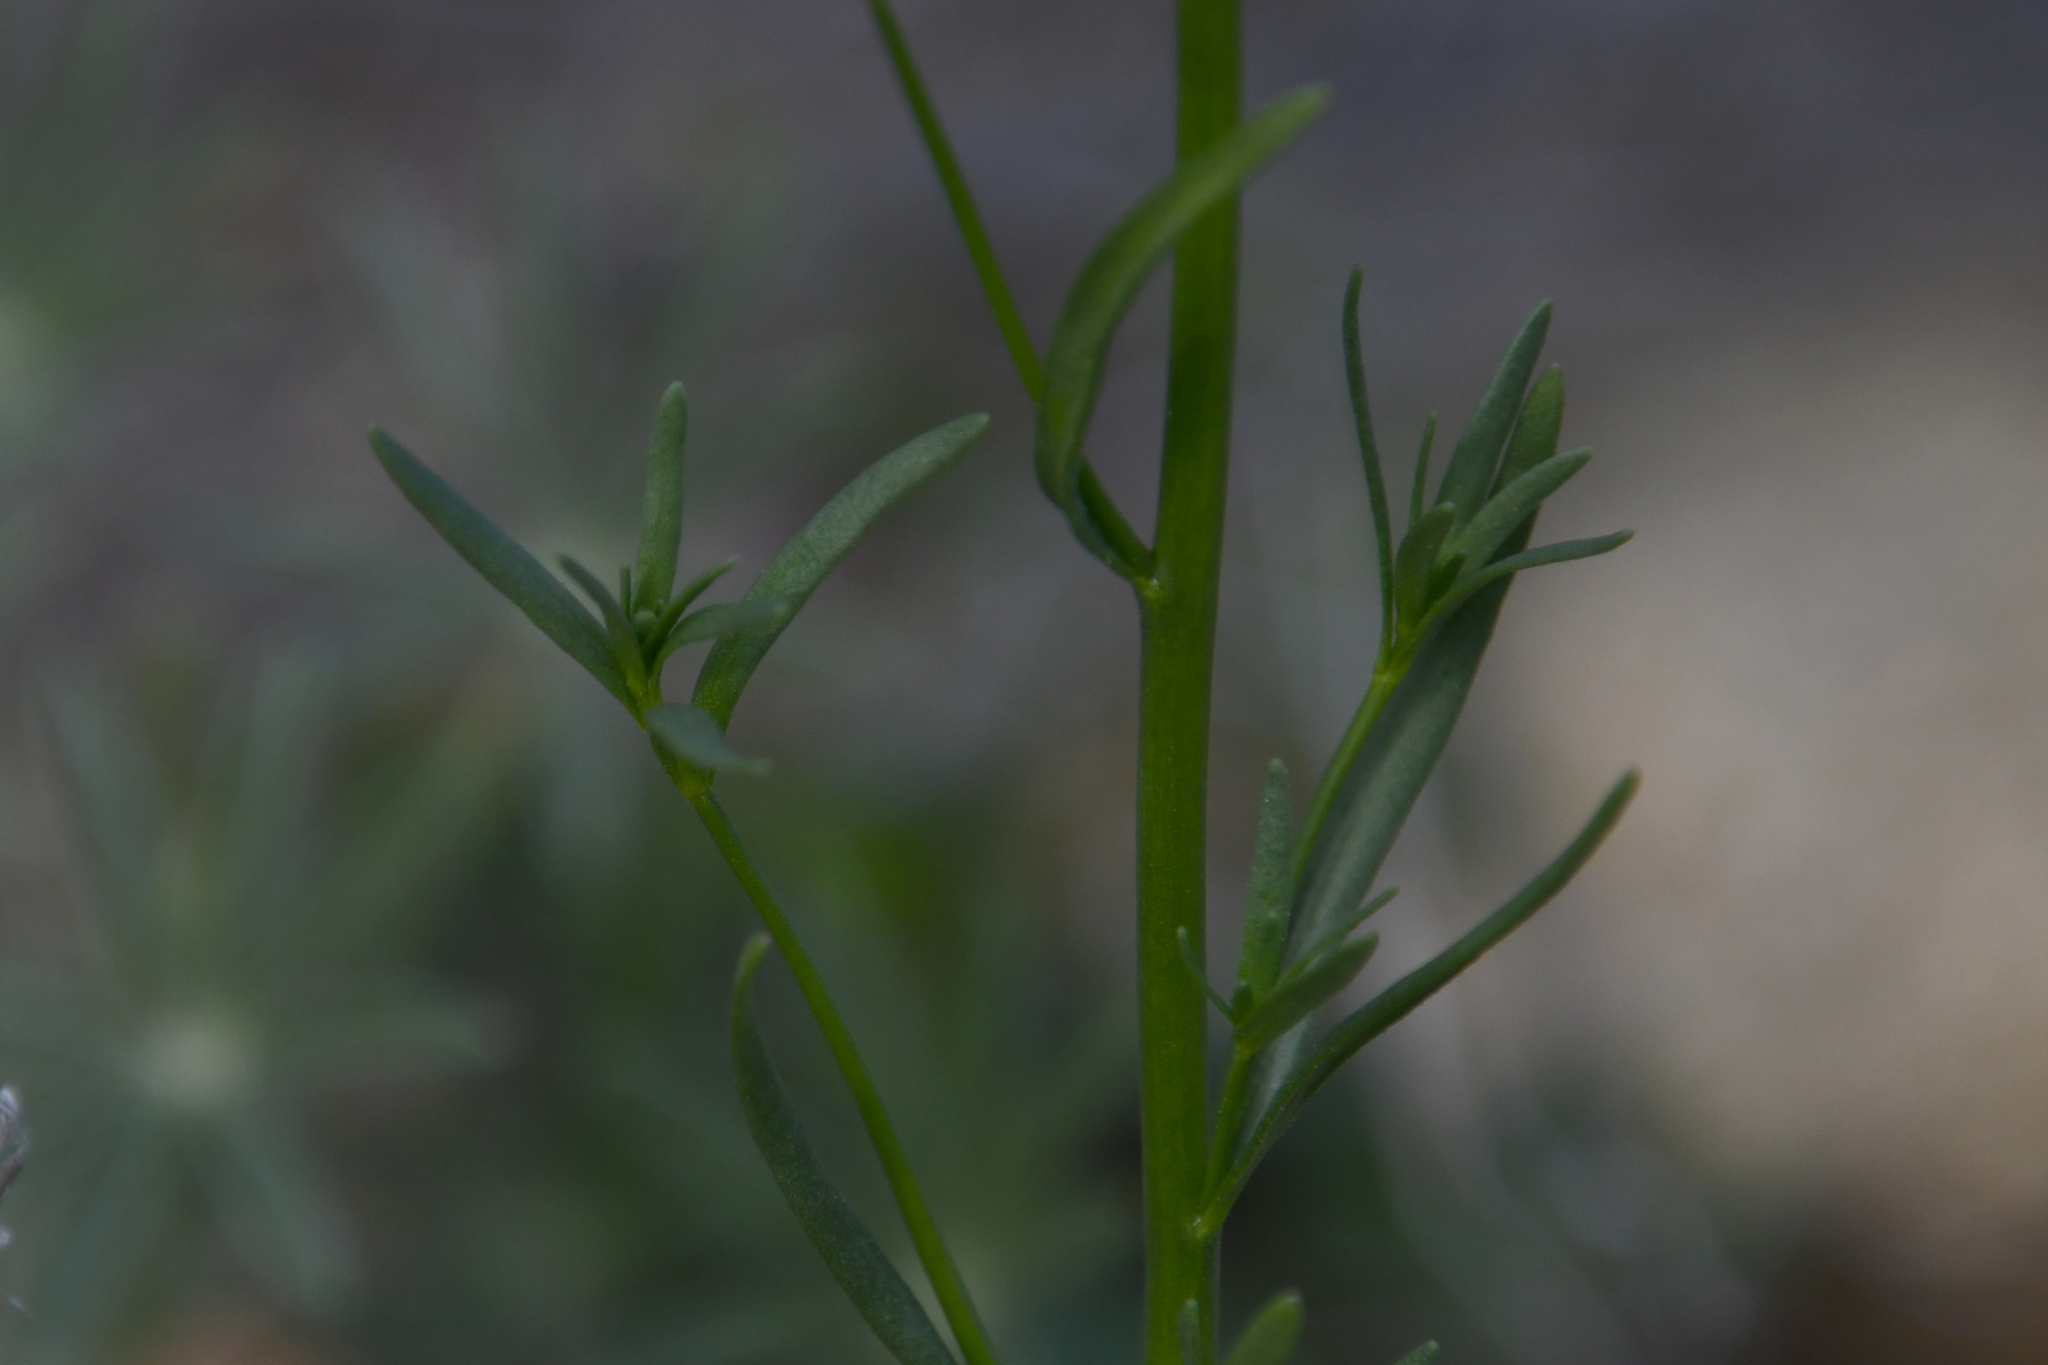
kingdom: Plantae
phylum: Tracheophyta
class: Magnoliopsida
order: Lamiales
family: Plantaginaceae
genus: Nuttallanthus
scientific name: Nuttallanthus texanus
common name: Texas toadflax
